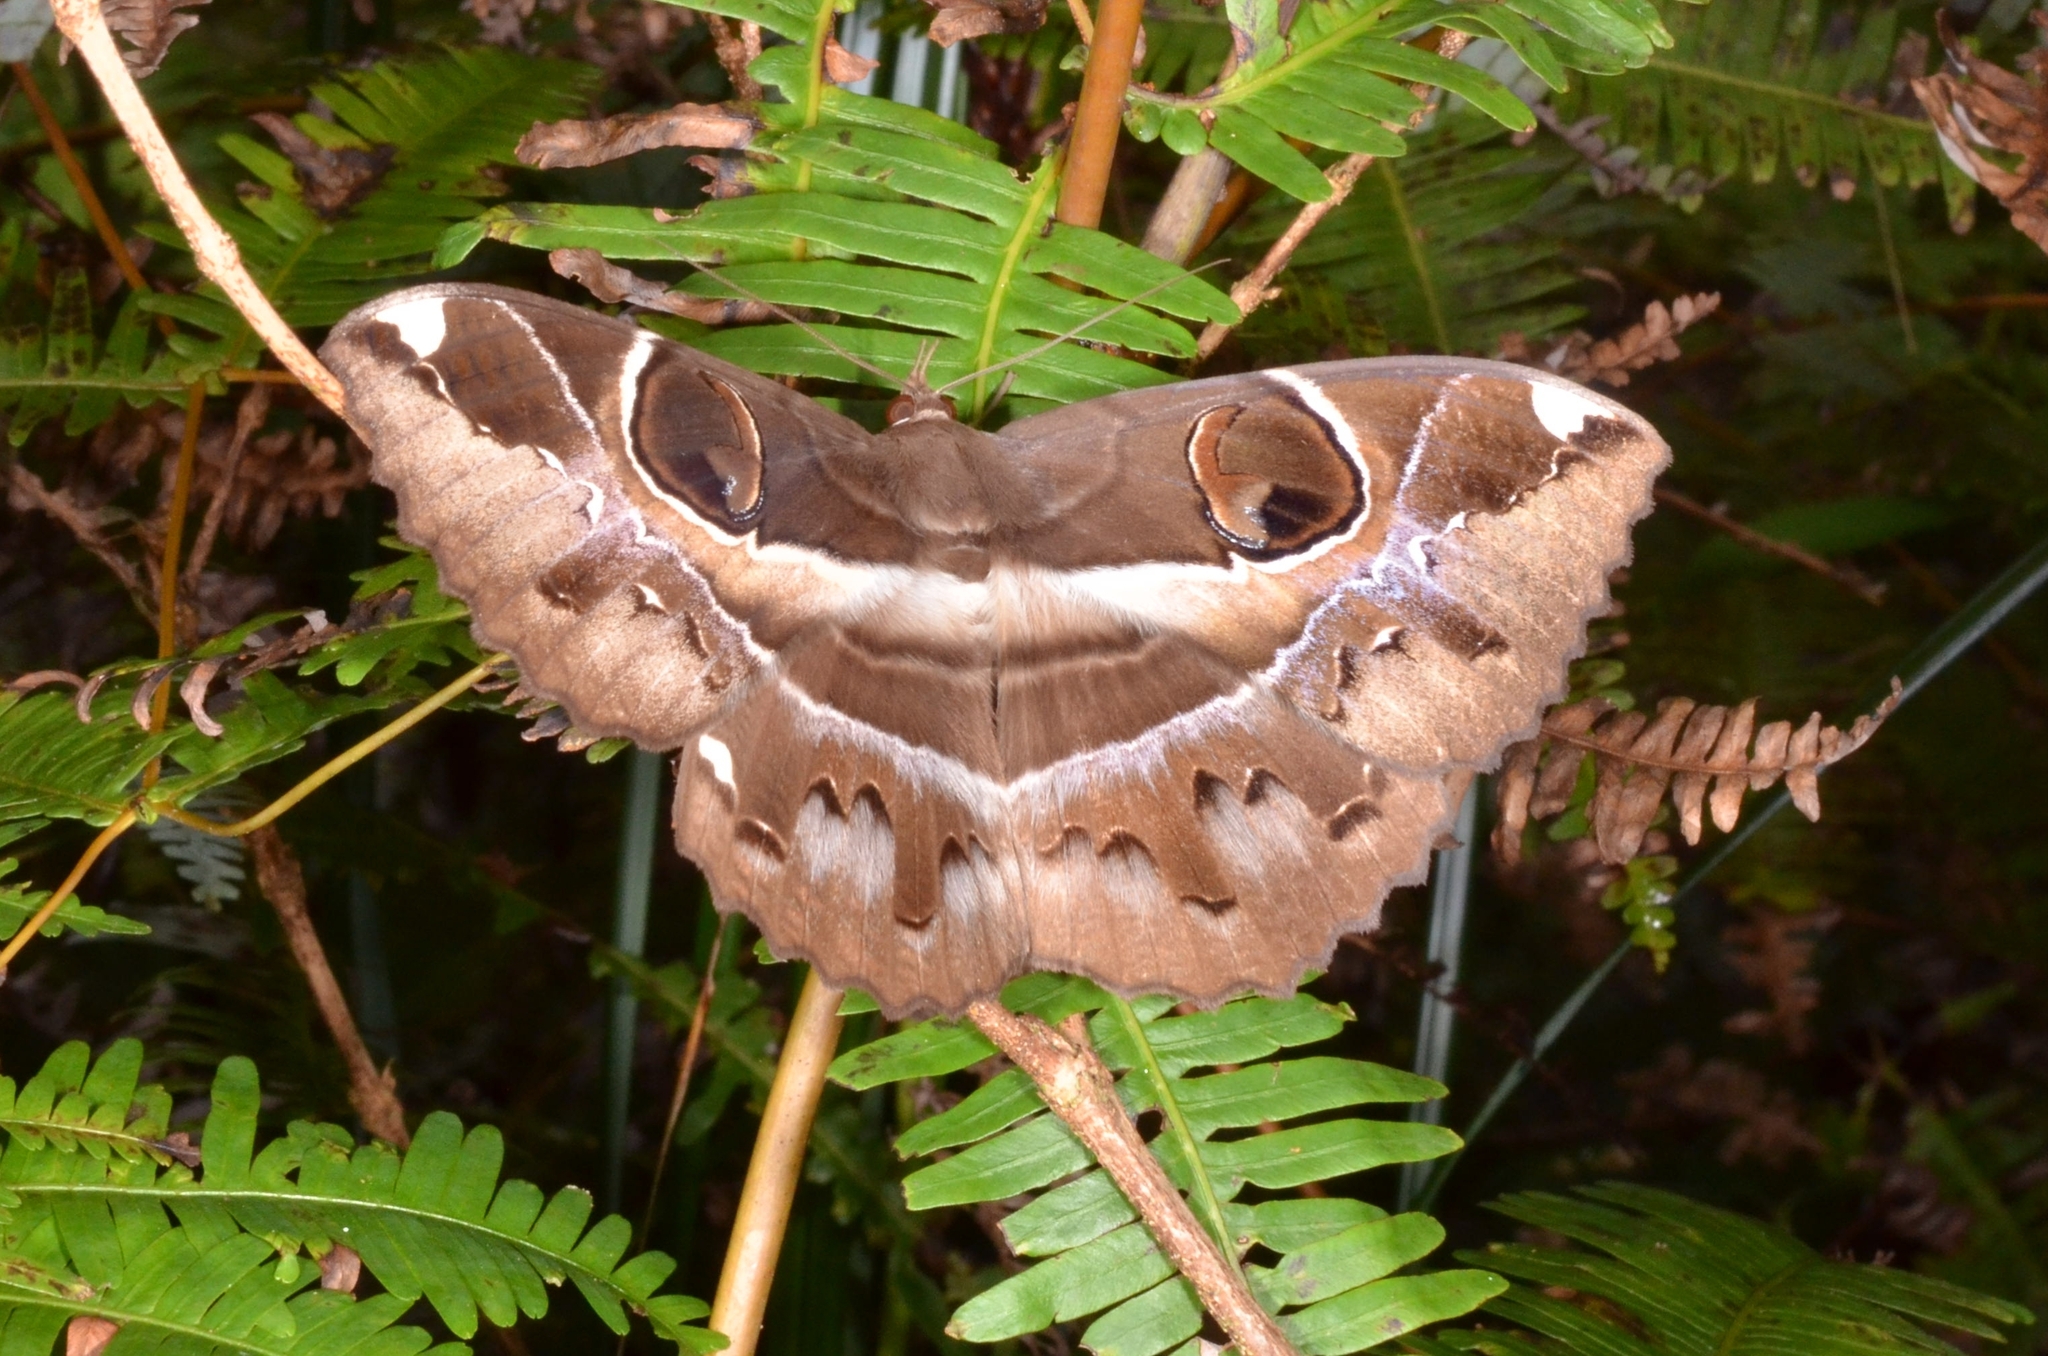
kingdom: Animalia
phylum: Arthropoda
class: Insecta
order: Lepidoptera
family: Erebidae
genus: Erebus
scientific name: Erebus ephesperis
